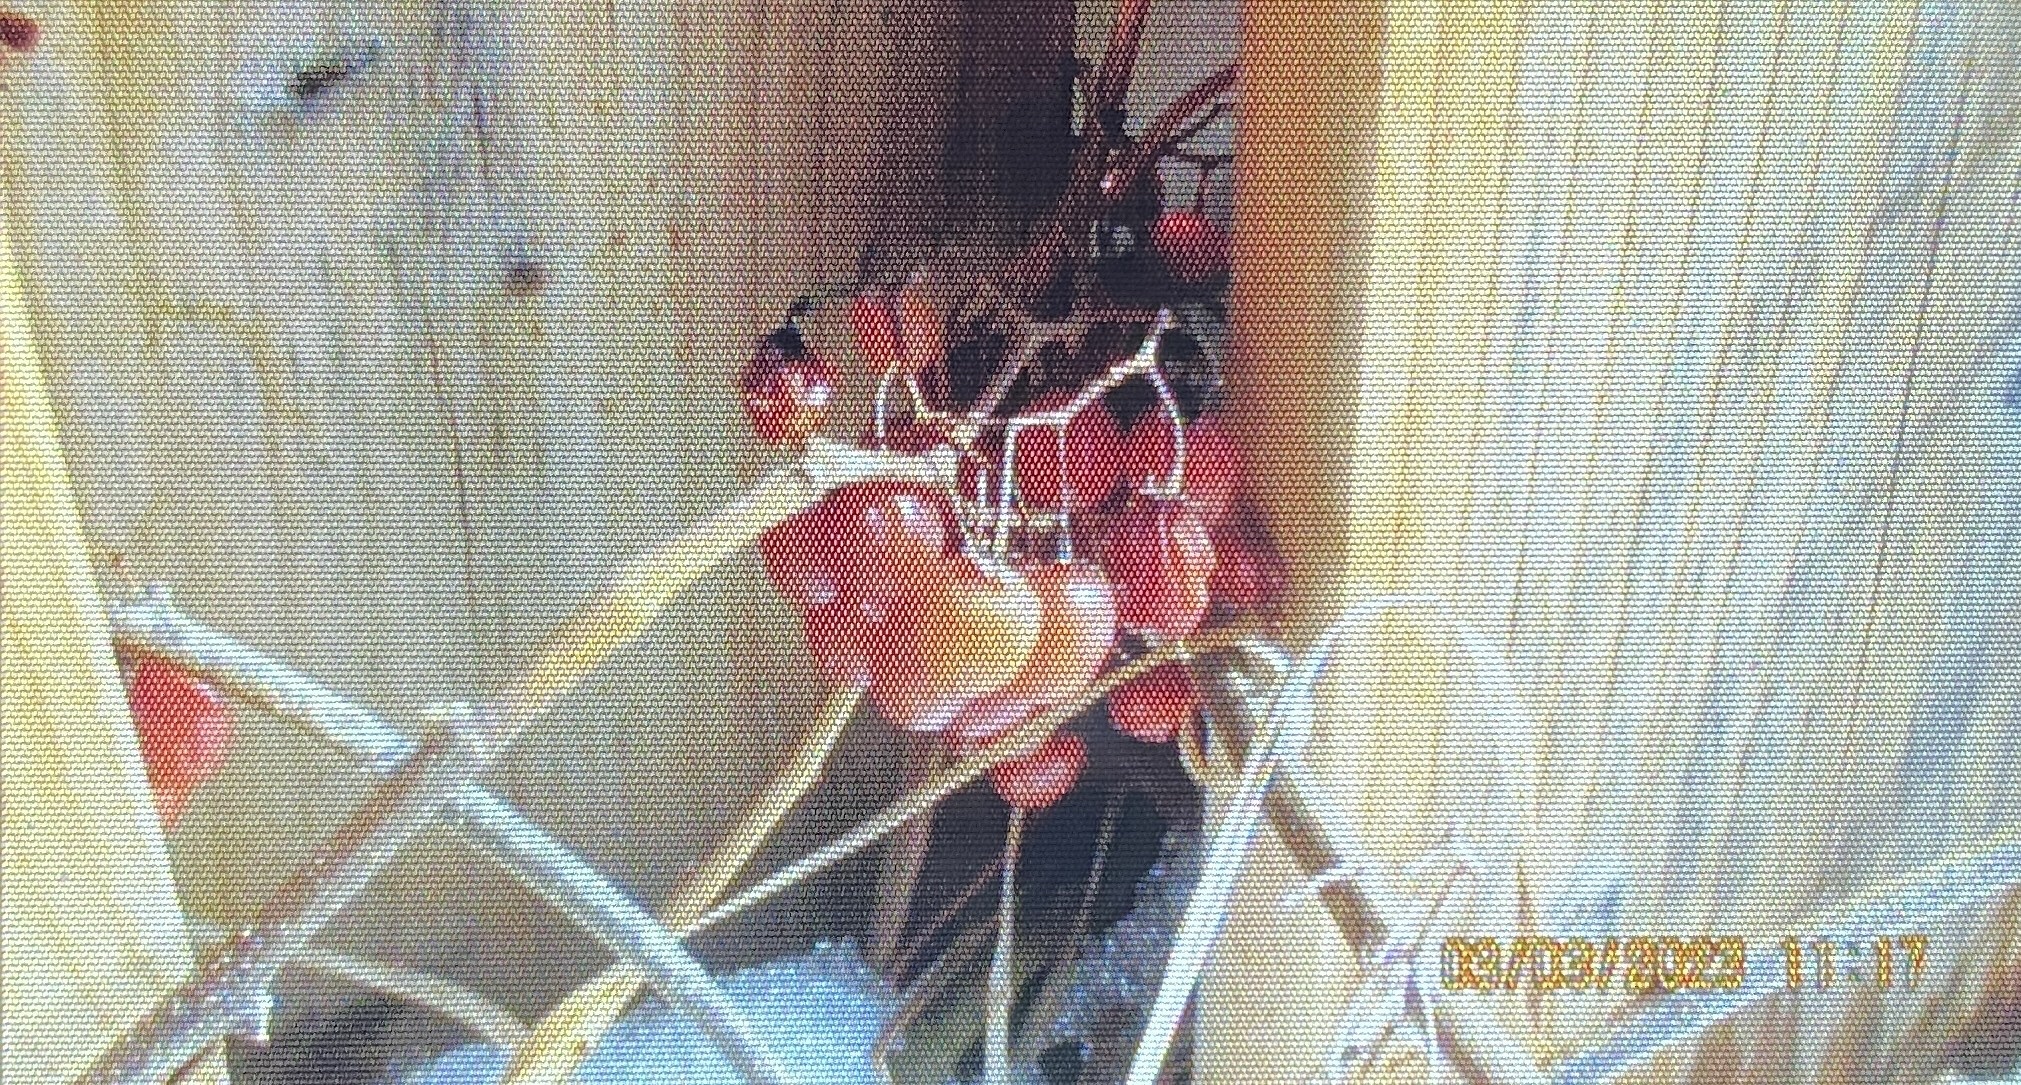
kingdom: Plantae
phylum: Tracheophyta
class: Magnoliopsida
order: Solanales
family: Solanaceae
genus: Solanum
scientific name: Solanum dulcamara
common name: Climbing nightshade
